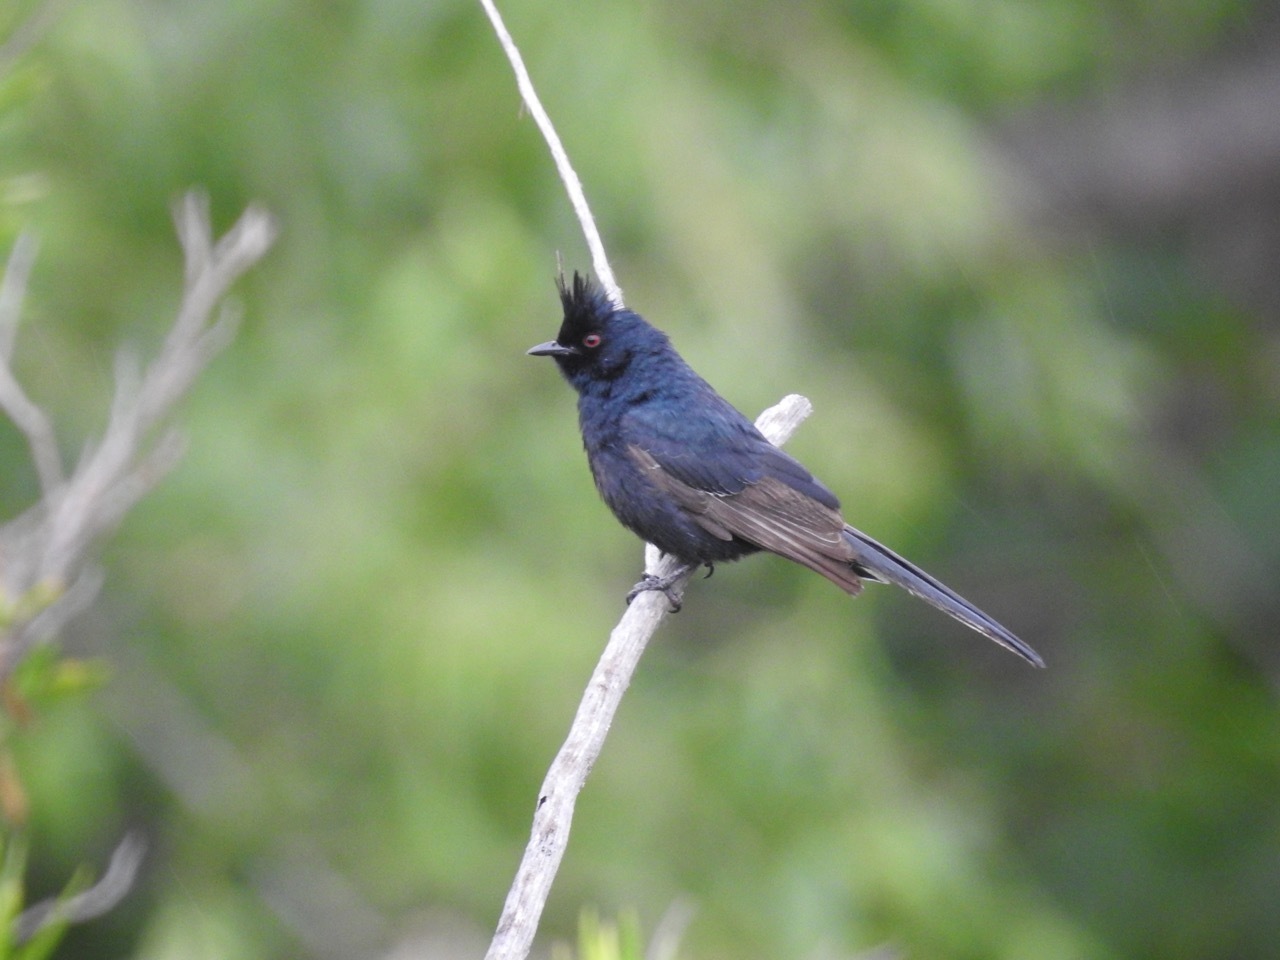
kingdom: Animalia
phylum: Chordata
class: Aves
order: Passeriformes
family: Ptilogonatidae
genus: Phainopepla
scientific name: Phainopepla nitens
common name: Phainopepla
